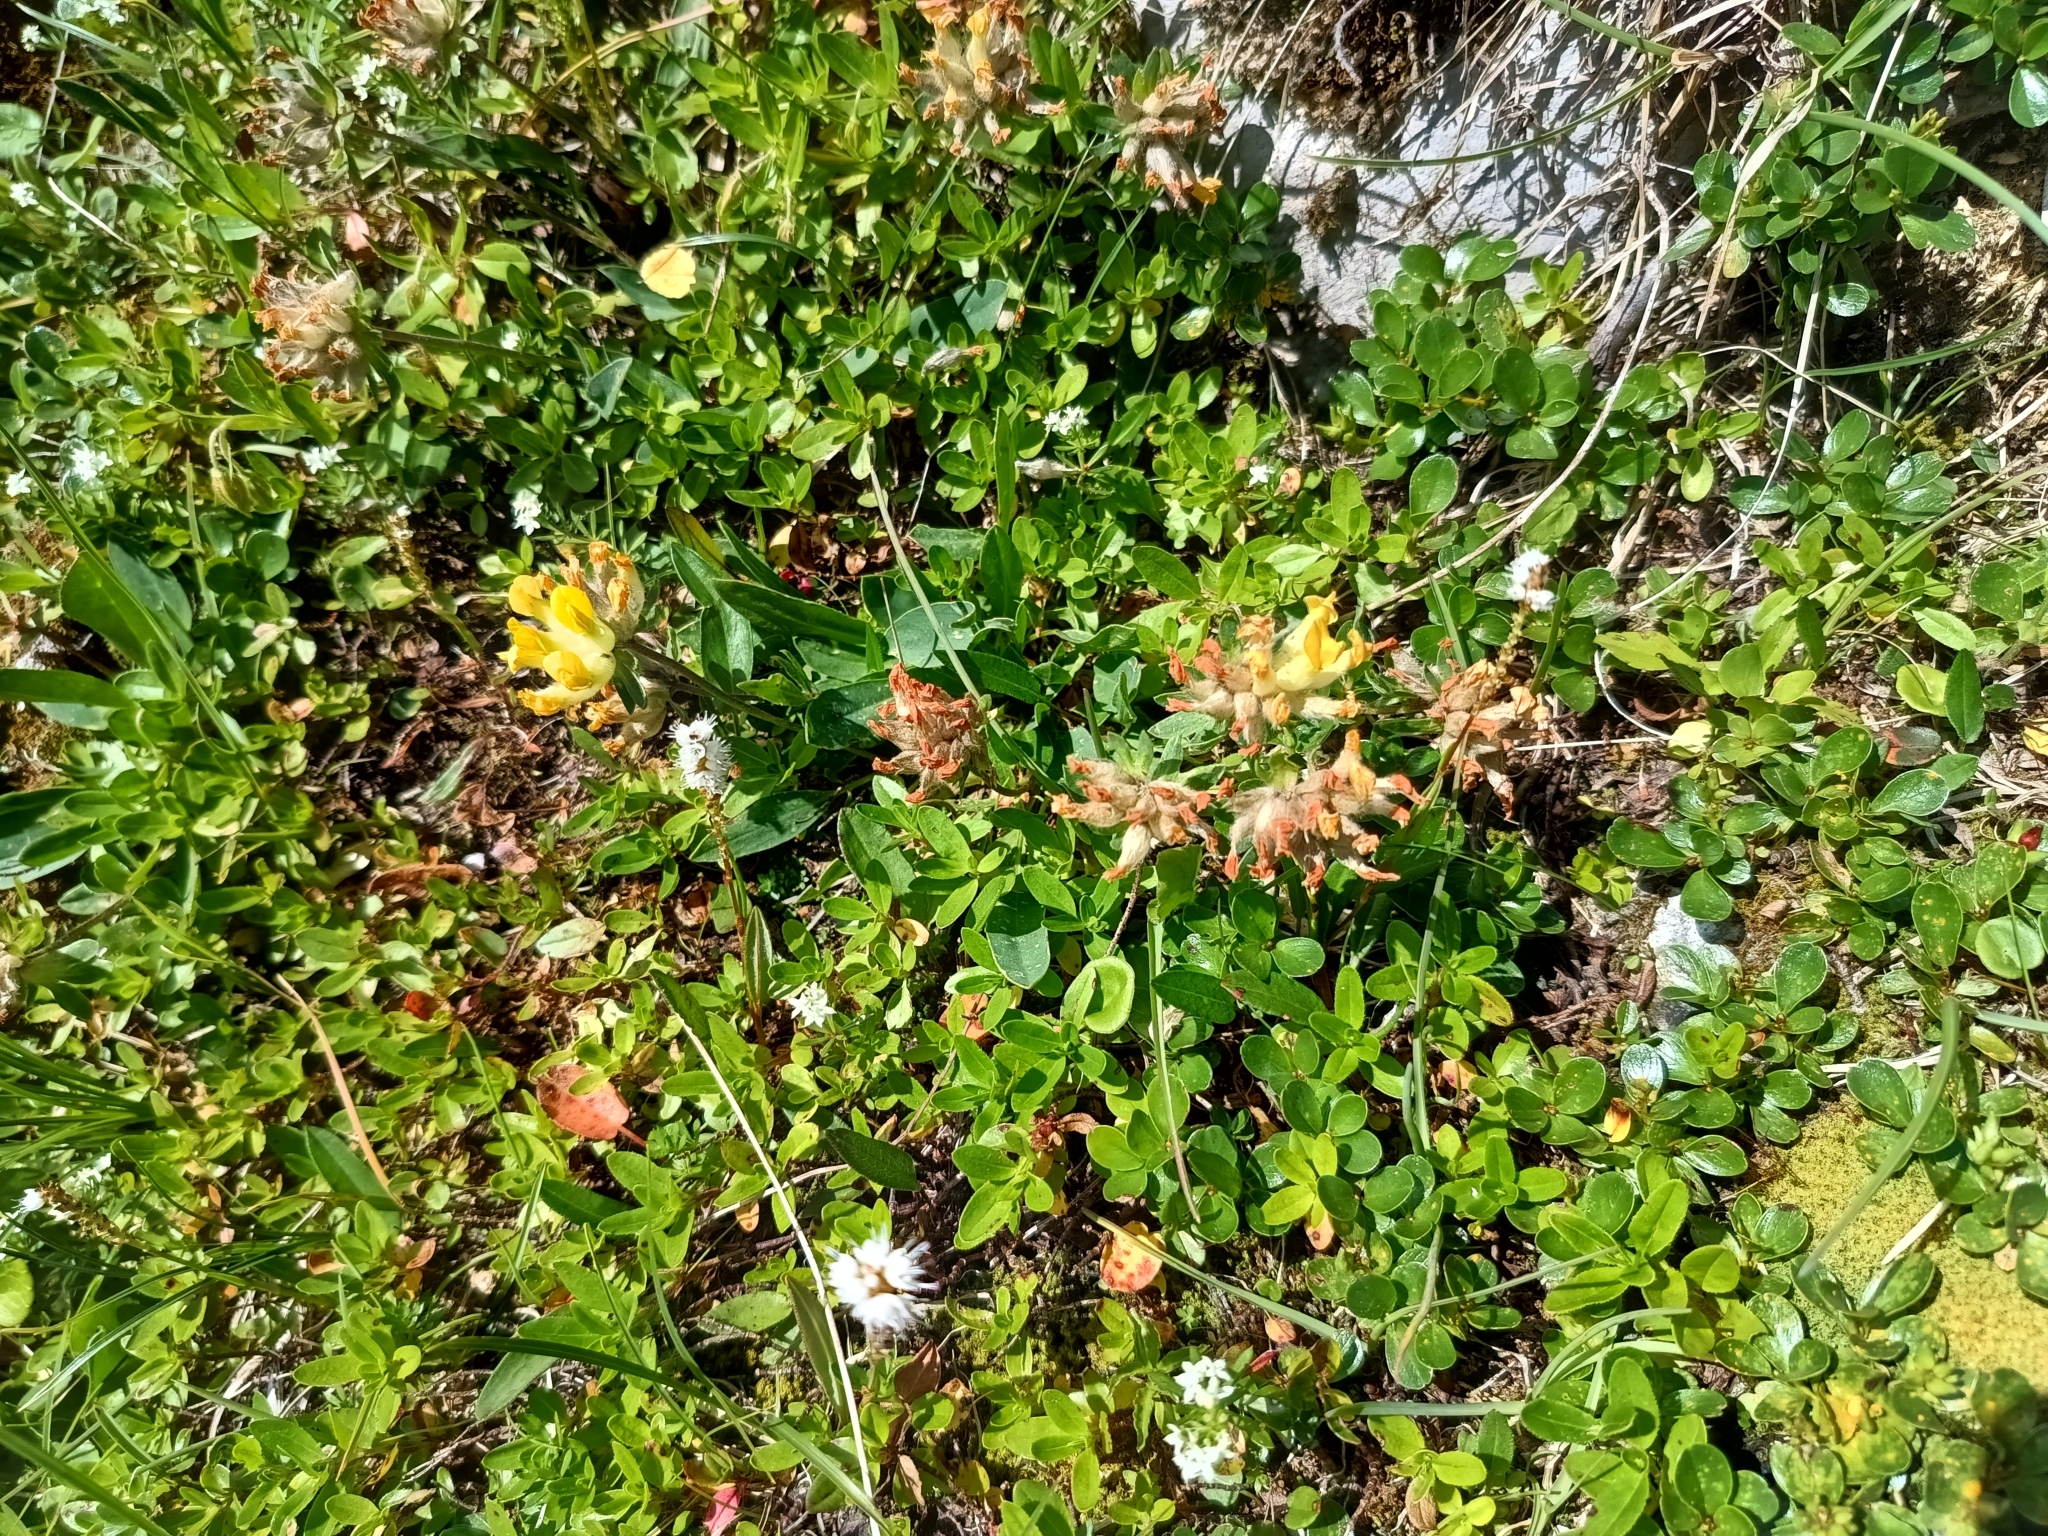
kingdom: Plantae
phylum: Tracheophyta
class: Magnoliopsida
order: Fabales
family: Fabaceae
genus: Anthyllis
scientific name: Anthyllis vulneraria
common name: Kidney vetch
